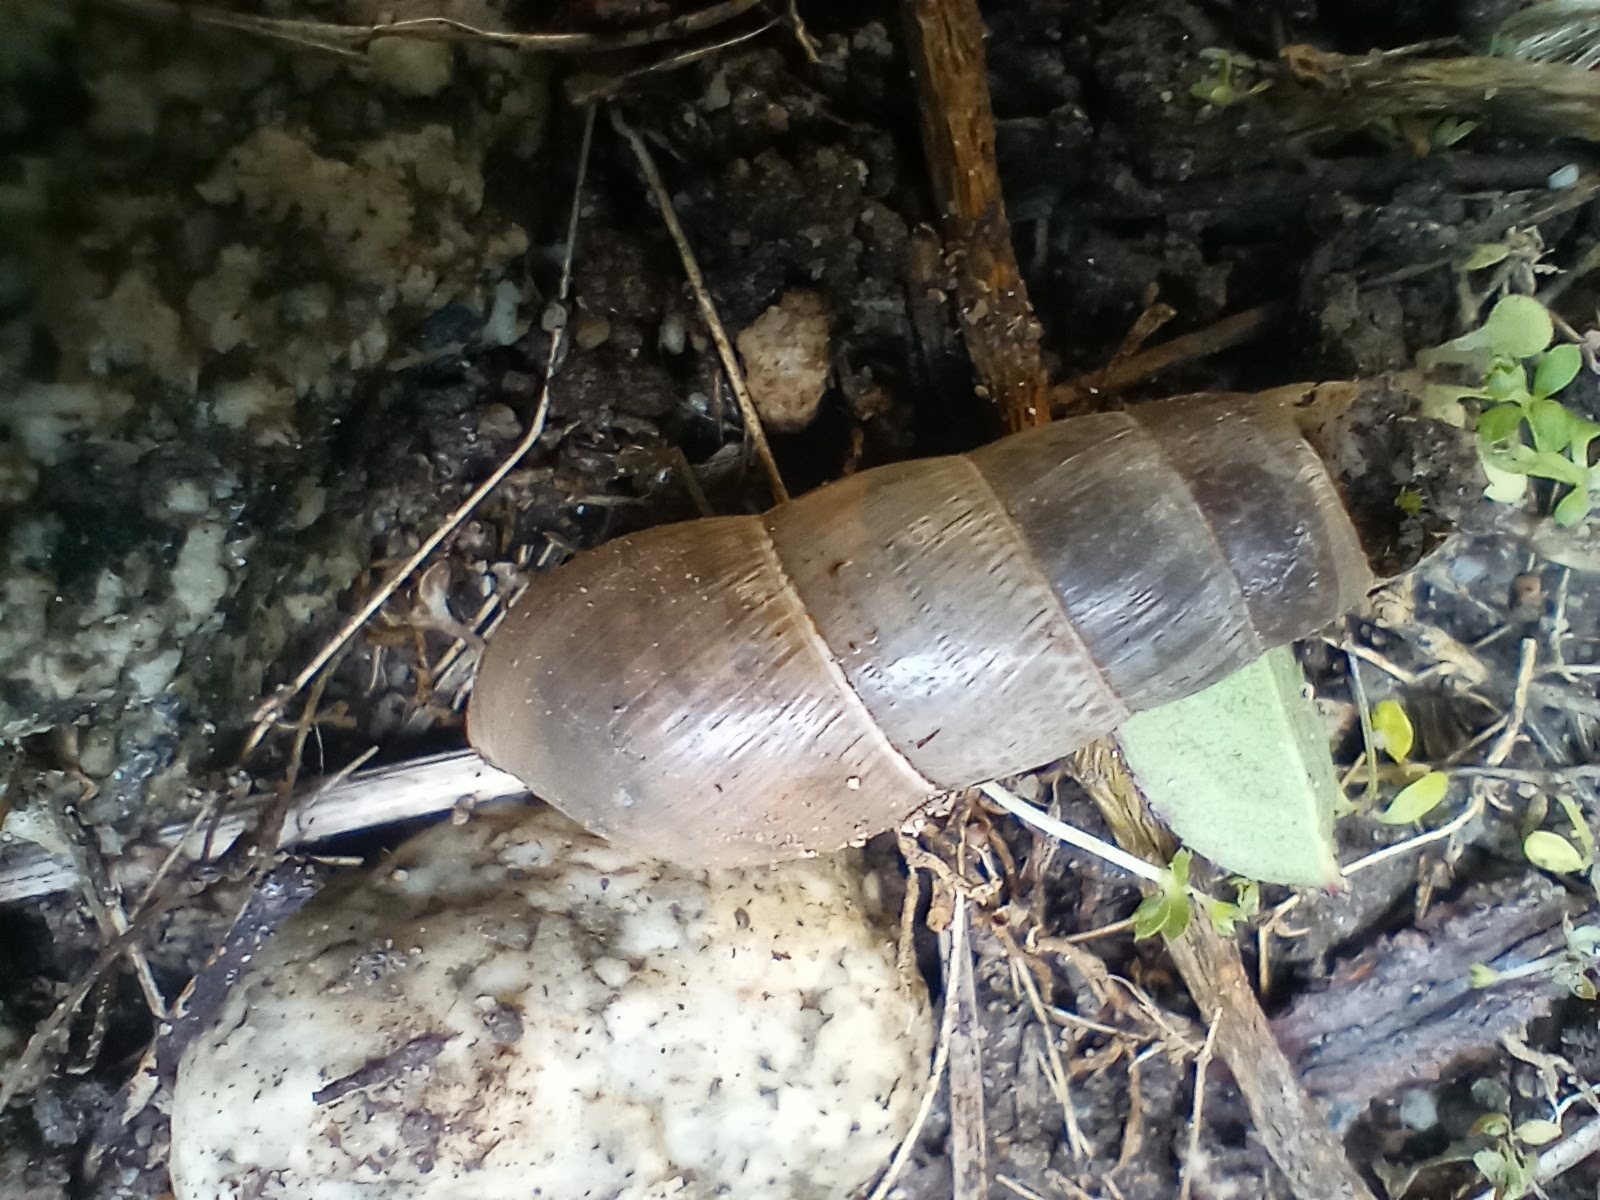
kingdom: Animalia
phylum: Mollusca
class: Gastropoda
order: Stylommatophora
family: Achatinidae
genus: Rumina
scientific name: Rumina decollata
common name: Decollate snail
